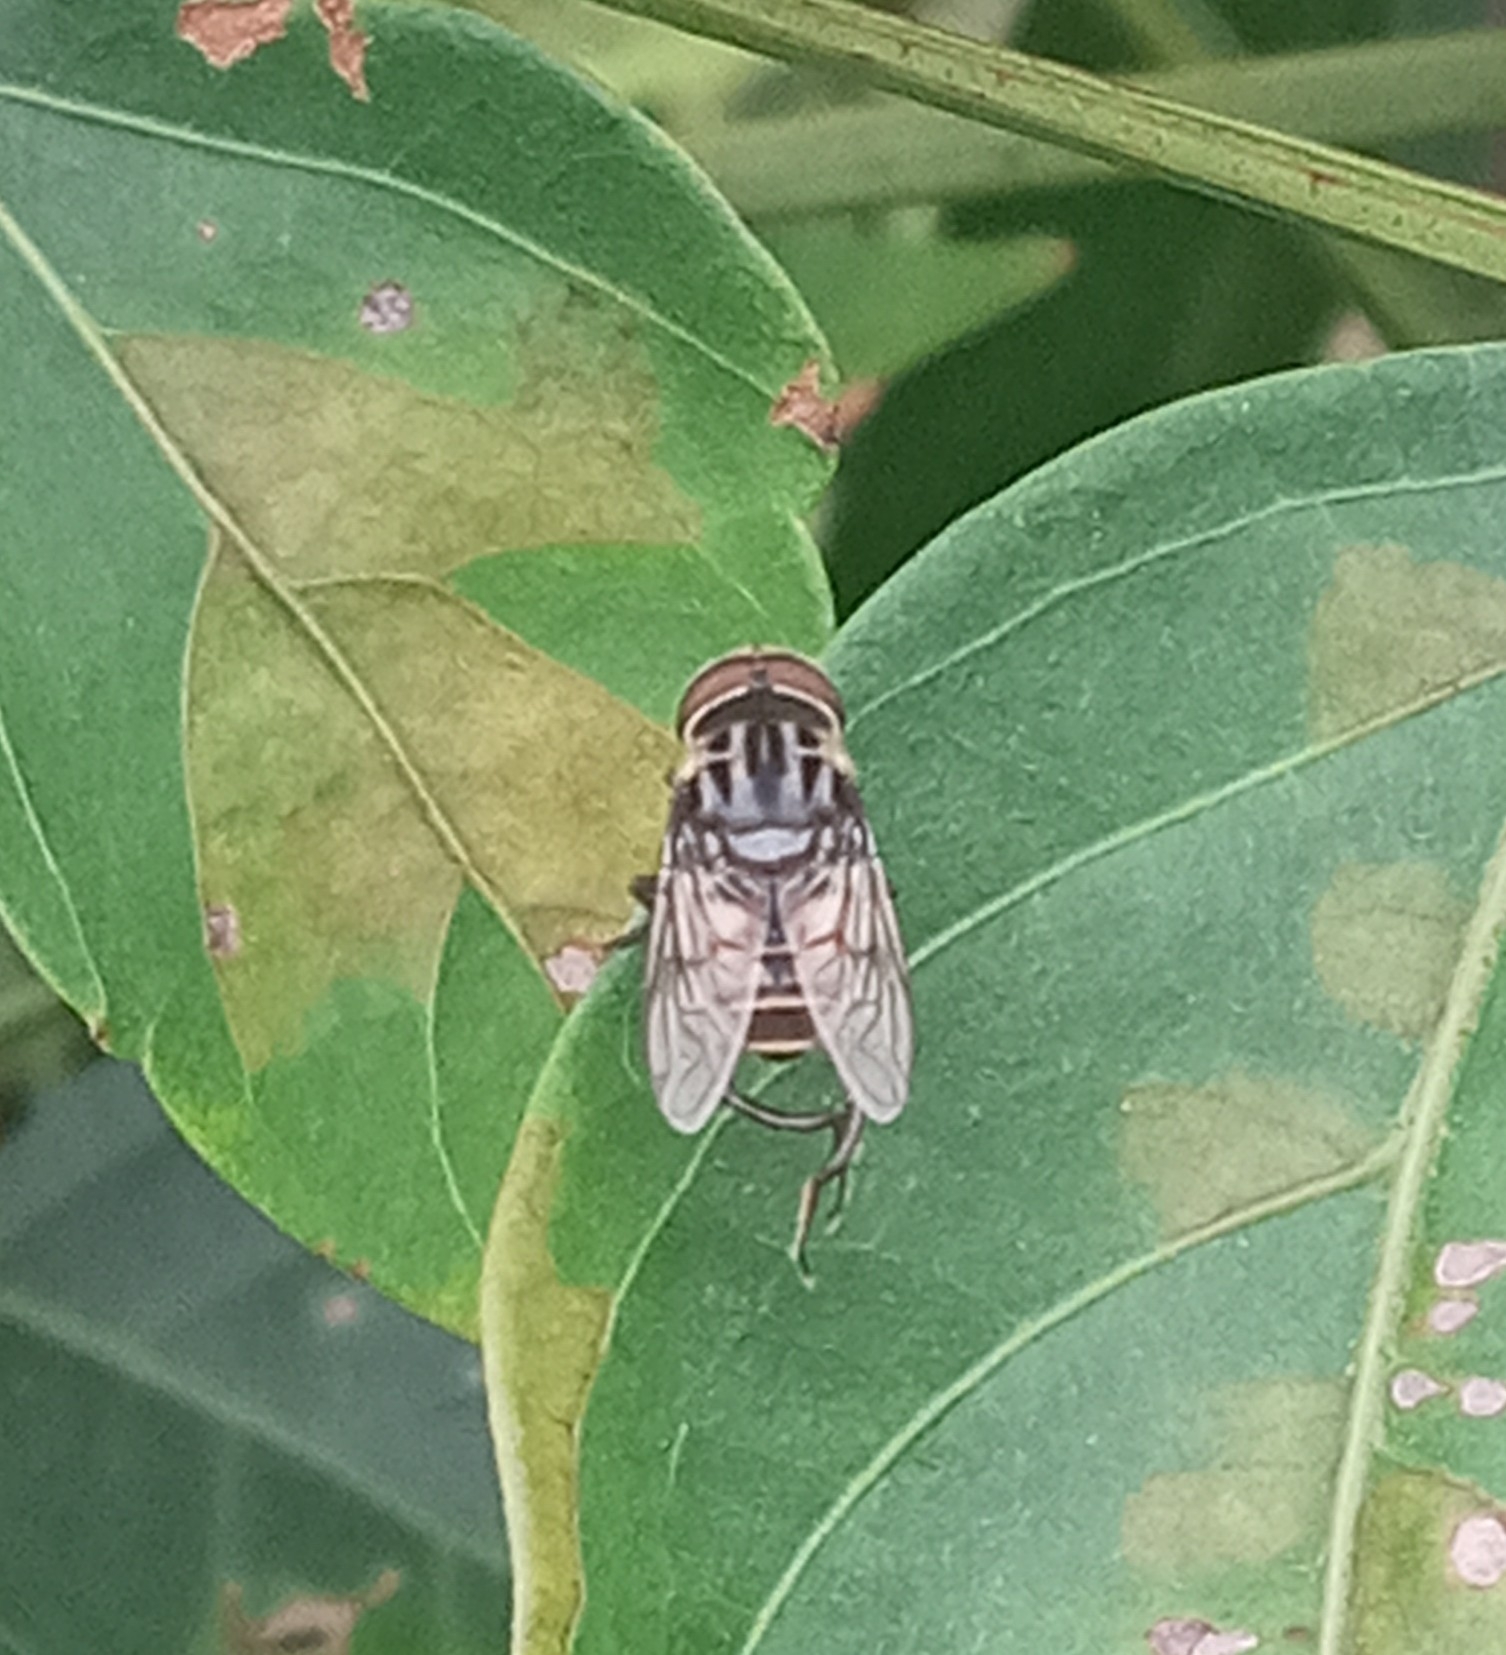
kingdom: Animalia
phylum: Arthropoda
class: Insecta
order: Diptera
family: Syrphidae
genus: Palpada
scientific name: Palpada furcata
